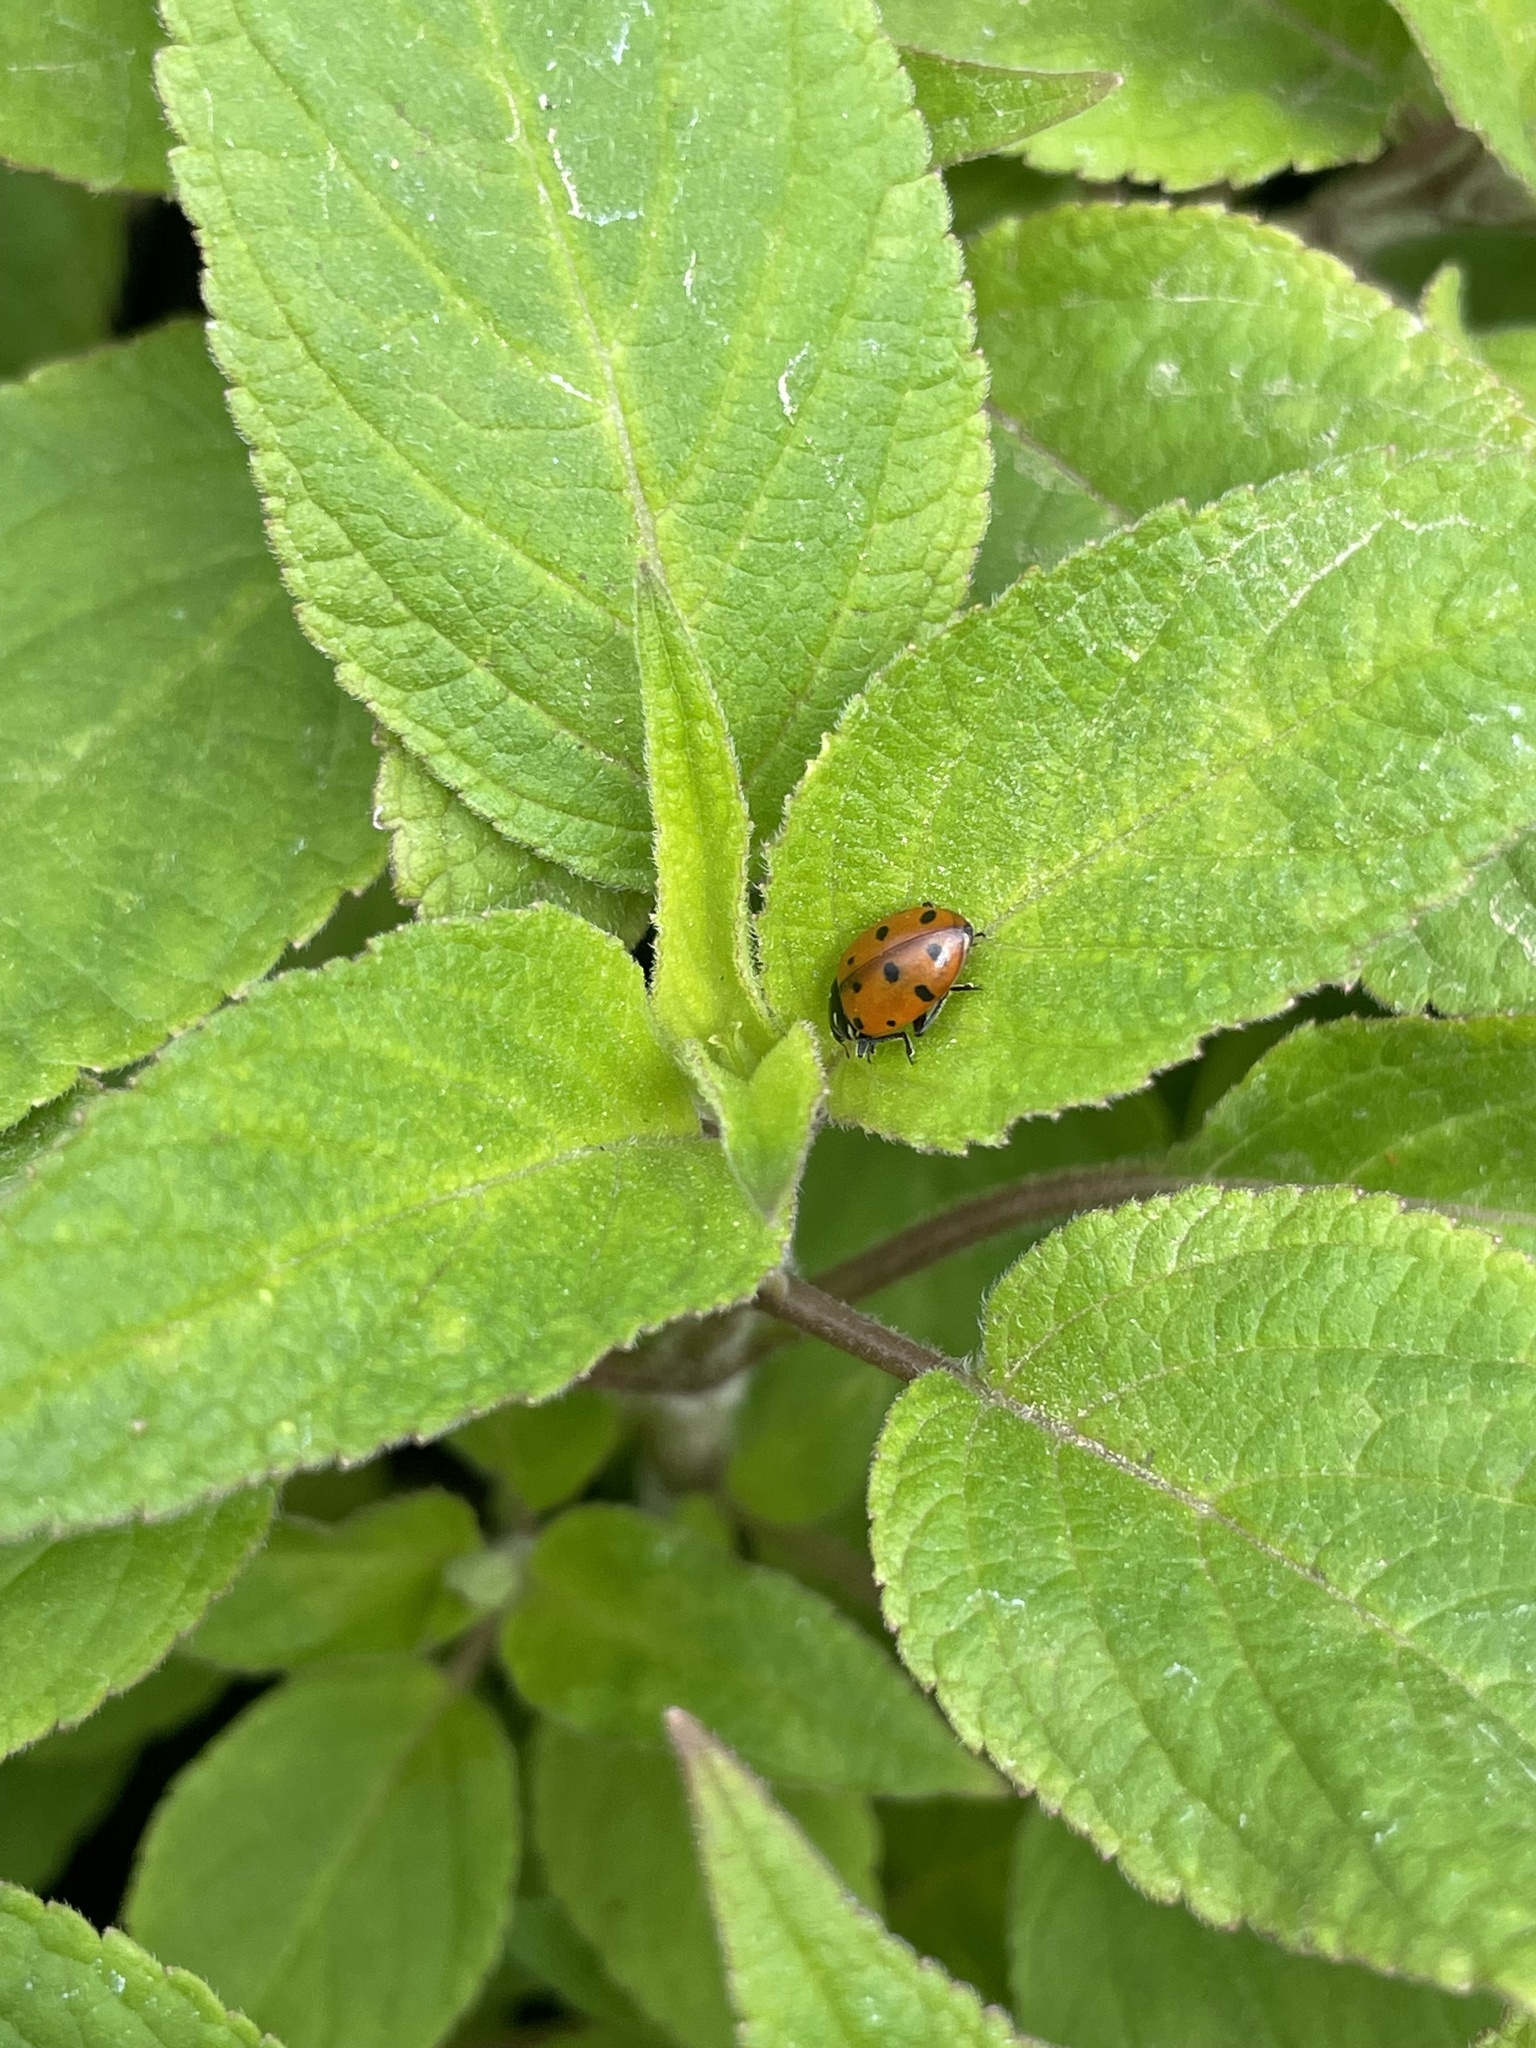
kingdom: Animalia
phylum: Arthropoda
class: Insecta
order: Coleoptera
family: Coccinellidae
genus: Hippodamia
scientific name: Hippodamia convergens
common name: Convergent lady beetle
